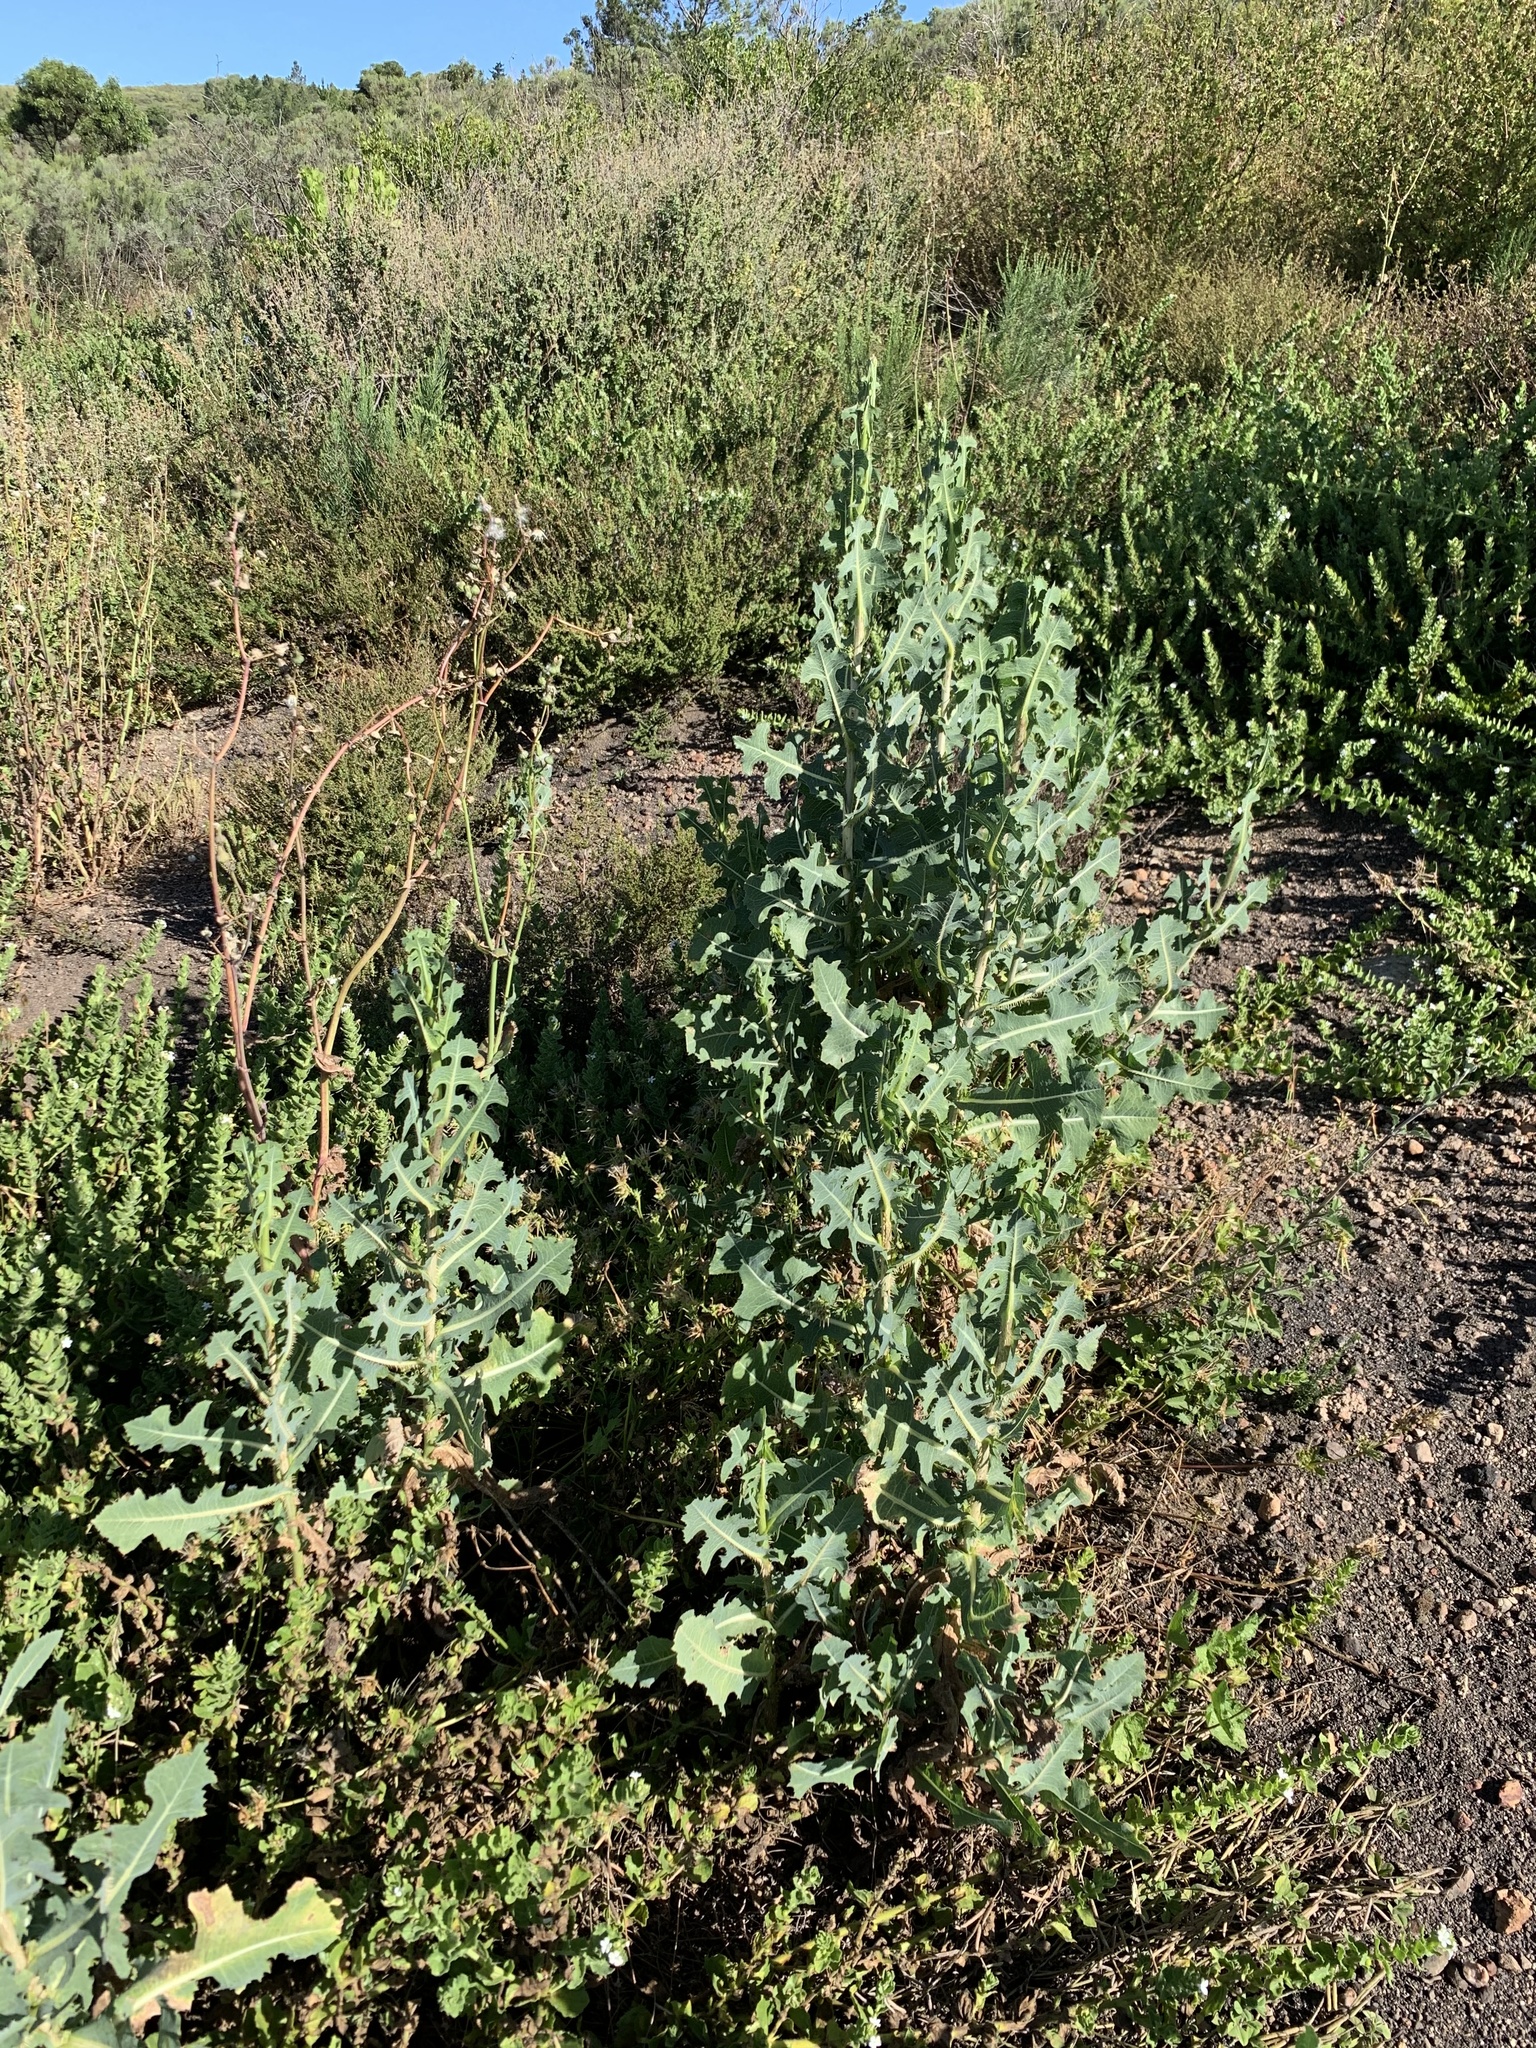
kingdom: Plantae
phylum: Tracheophyta
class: Magnoliopsida
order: Asterales
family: Asteraceae
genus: Lactuca
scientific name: Lactuca serriola
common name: Prickly lettuce
